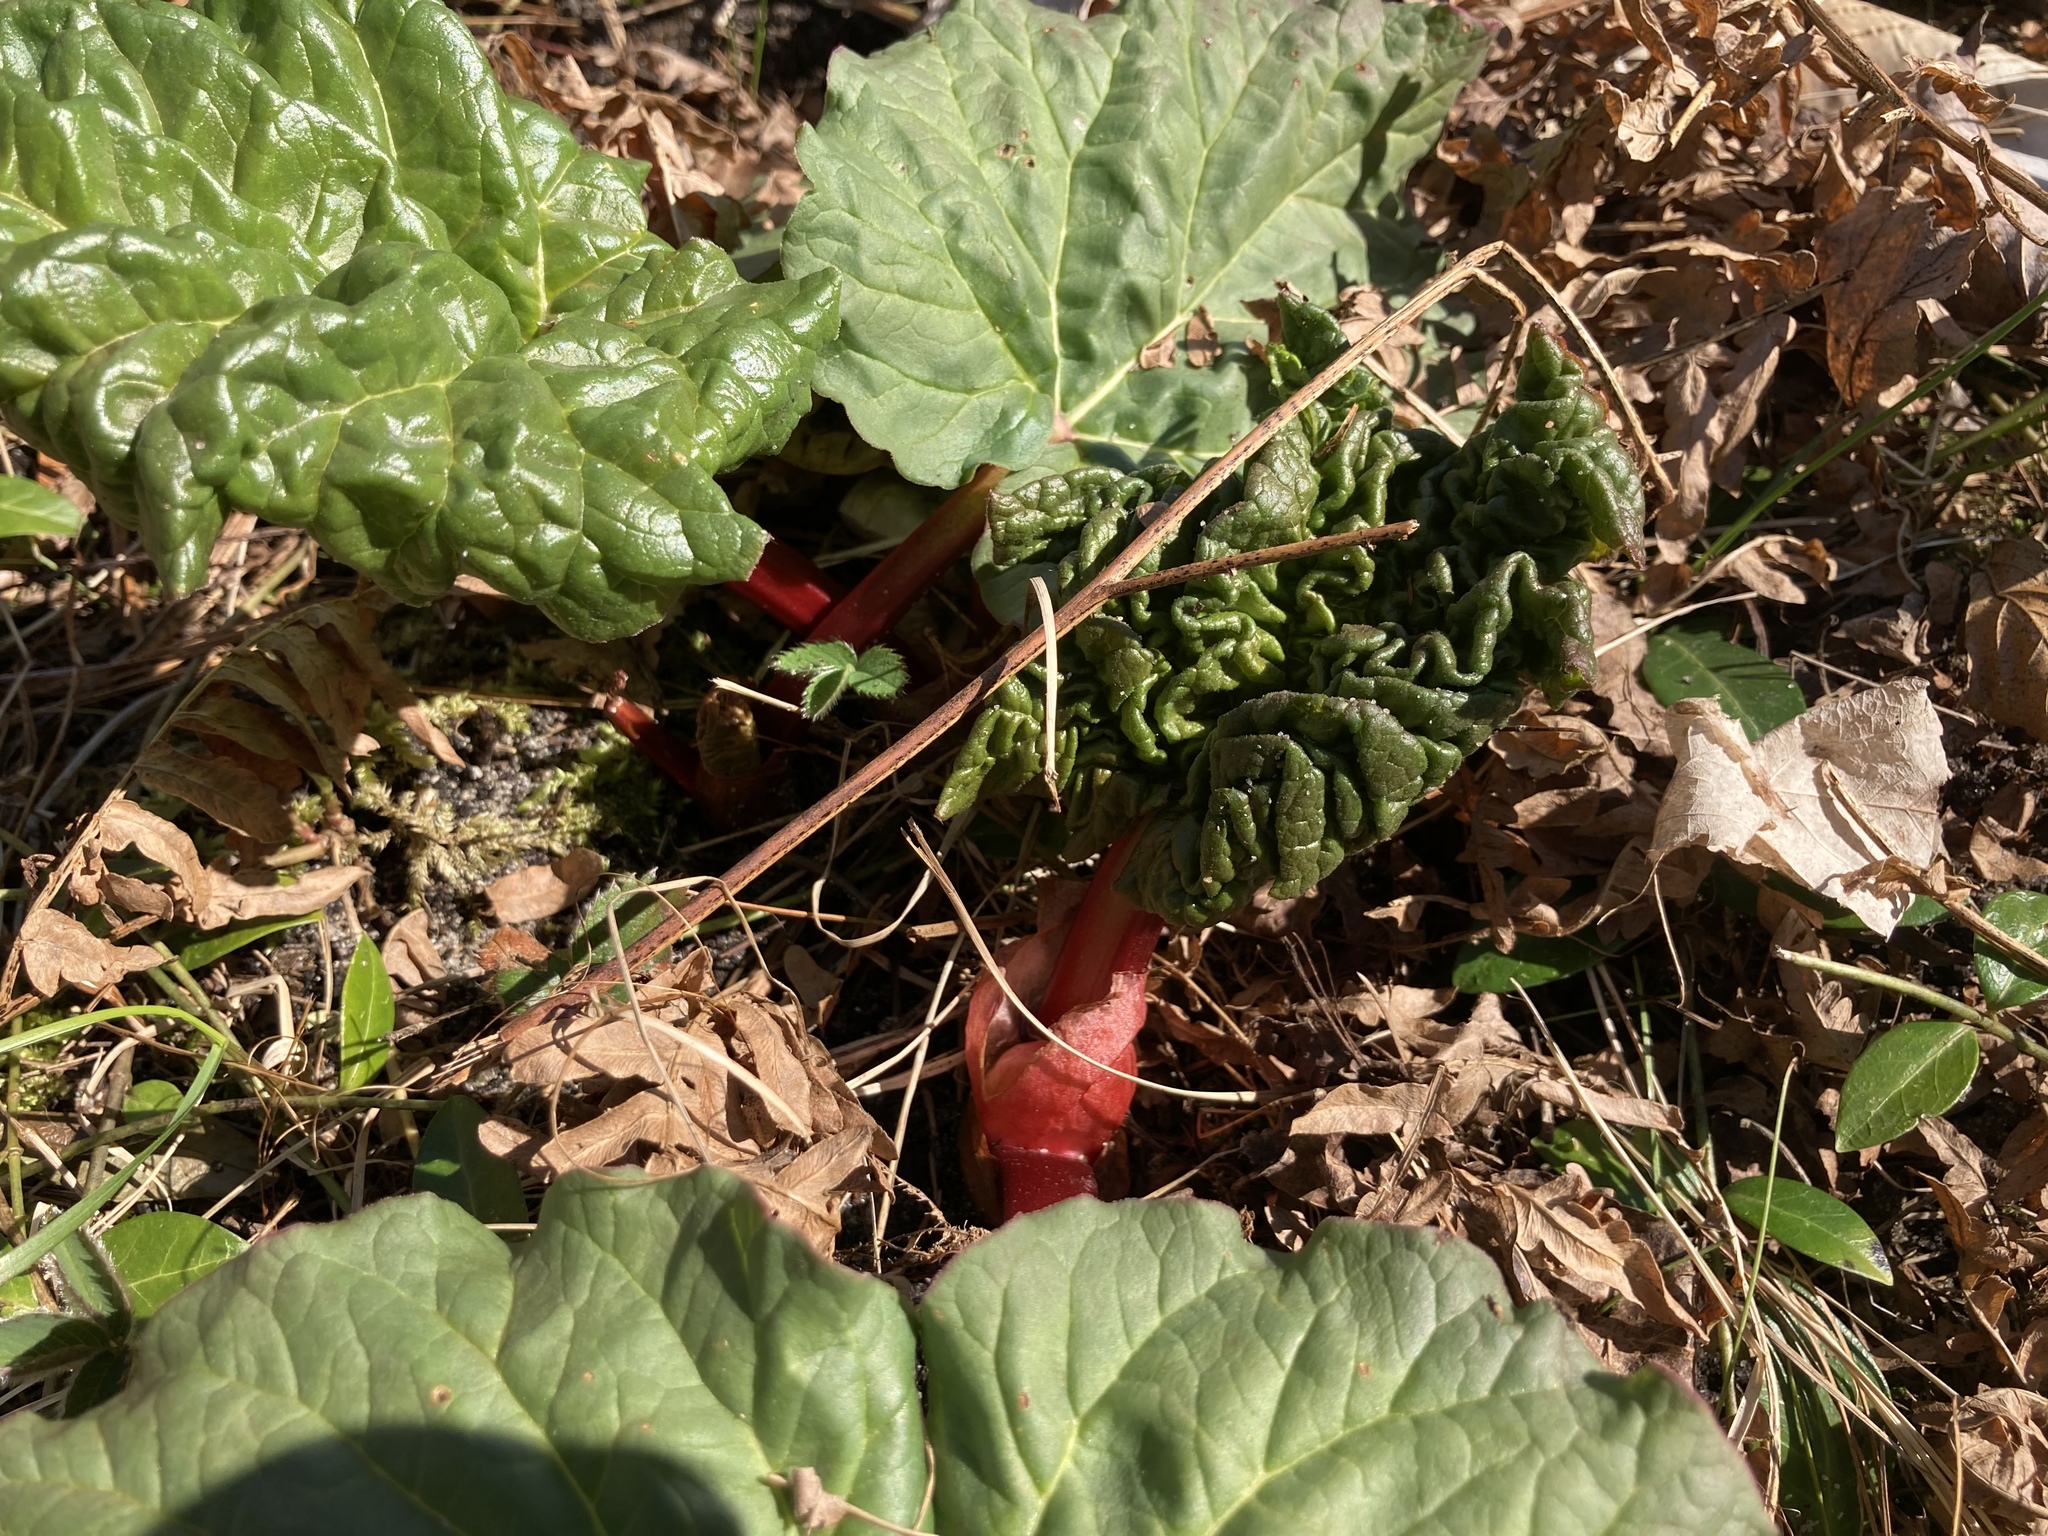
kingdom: Plantae
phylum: Tracheophyta
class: Magnoliopsida
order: Caryophyllales
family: Polygonaceae
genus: Rheum
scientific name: Rheum rhabarbarum
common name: Garden rhubarb
